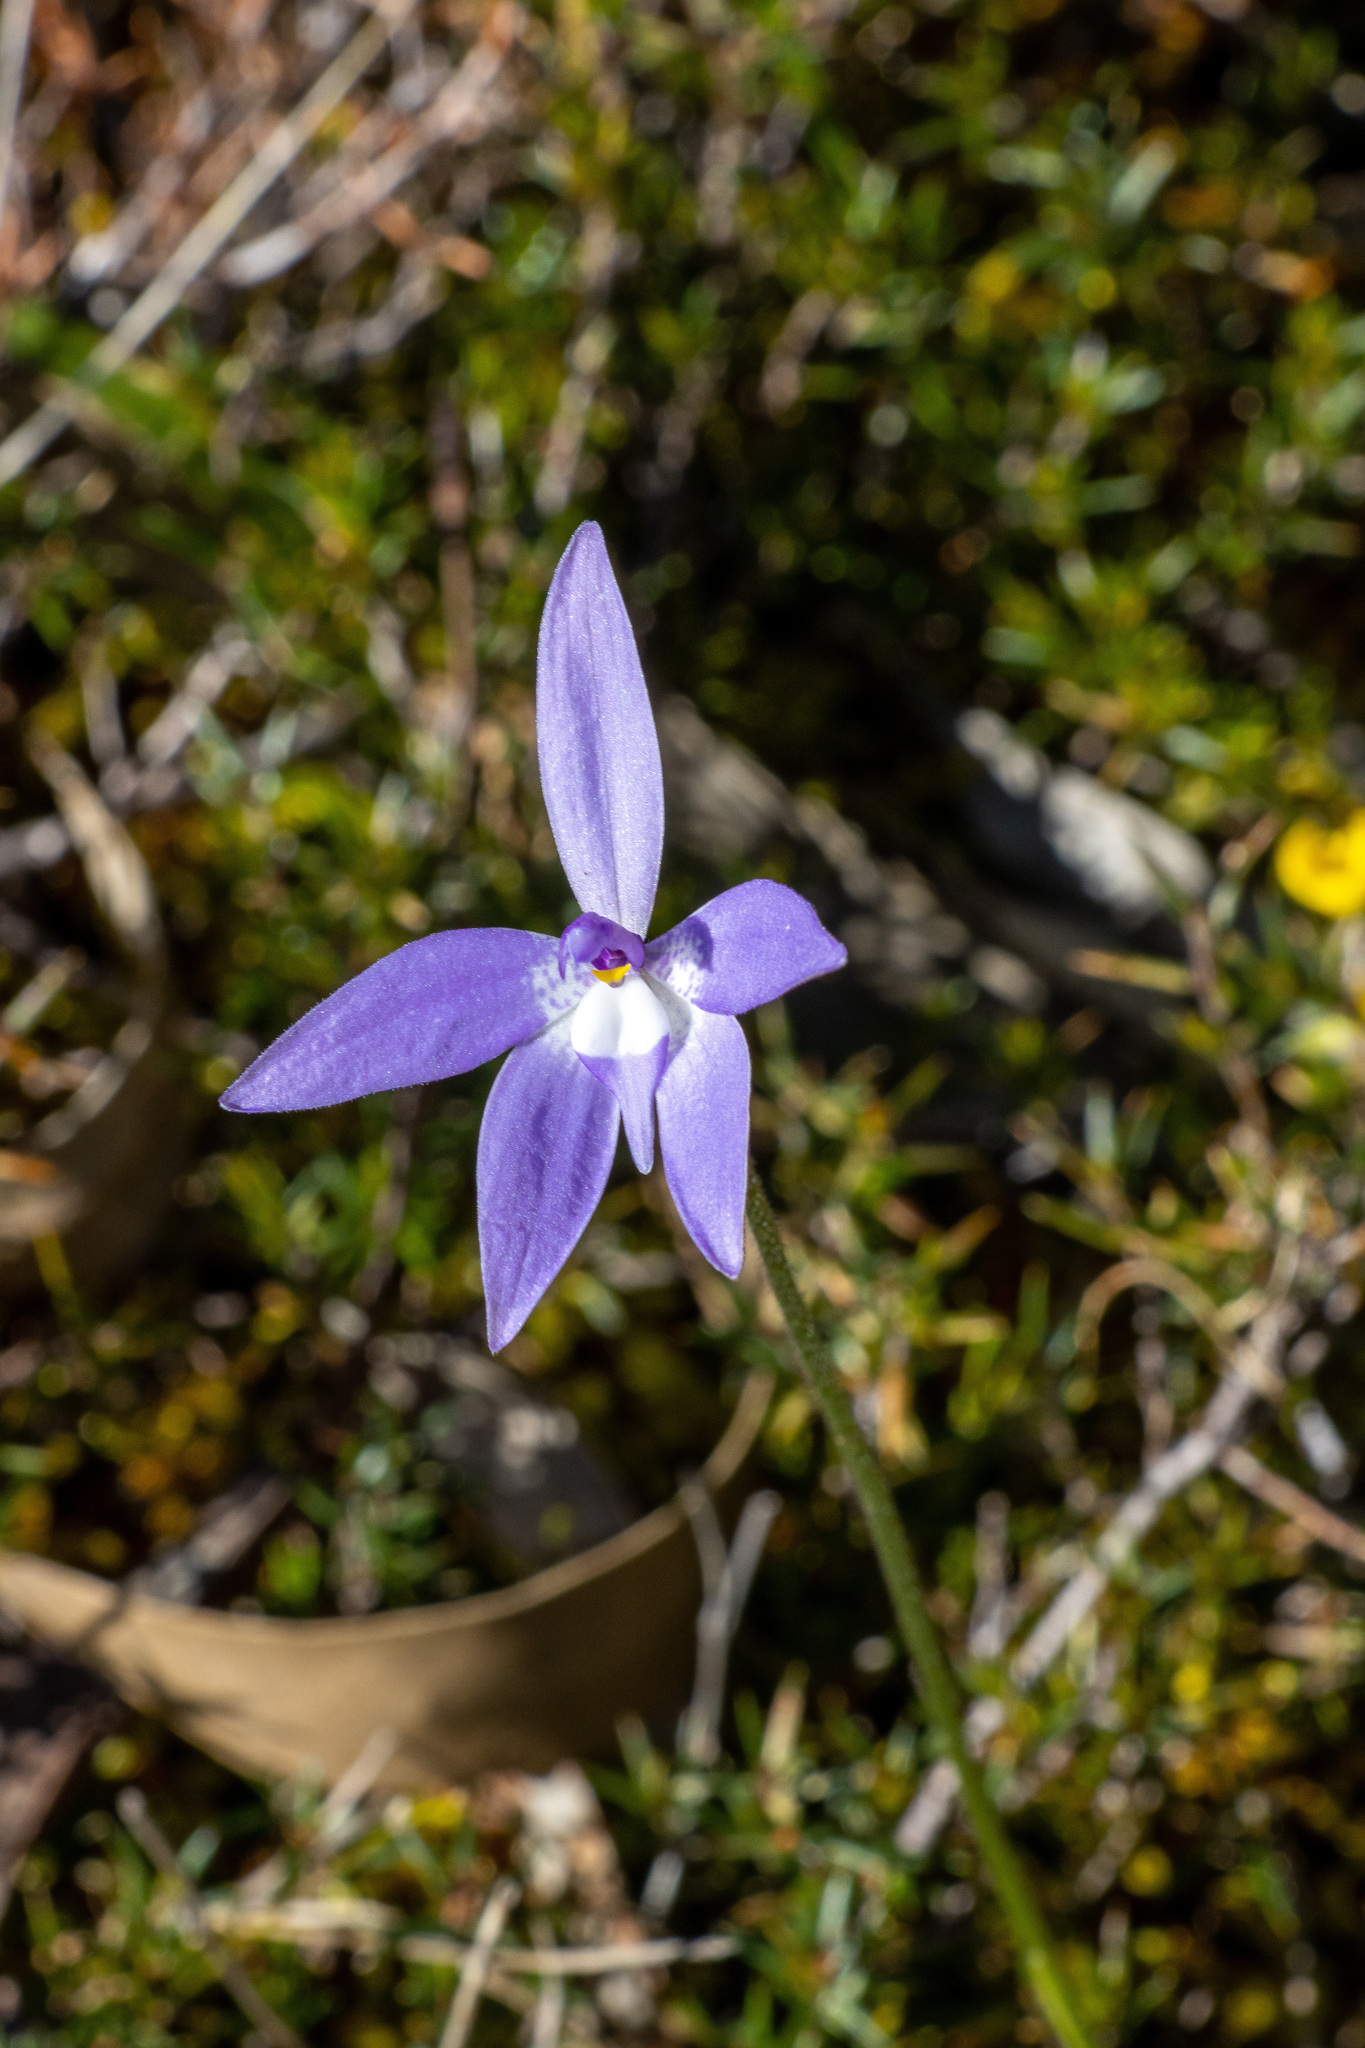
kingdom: Plantae
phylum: Tracheophyta
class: Liliopsida
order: Asparagales
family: Orchidaceae
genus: Caladenia
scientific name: Caladenia major
